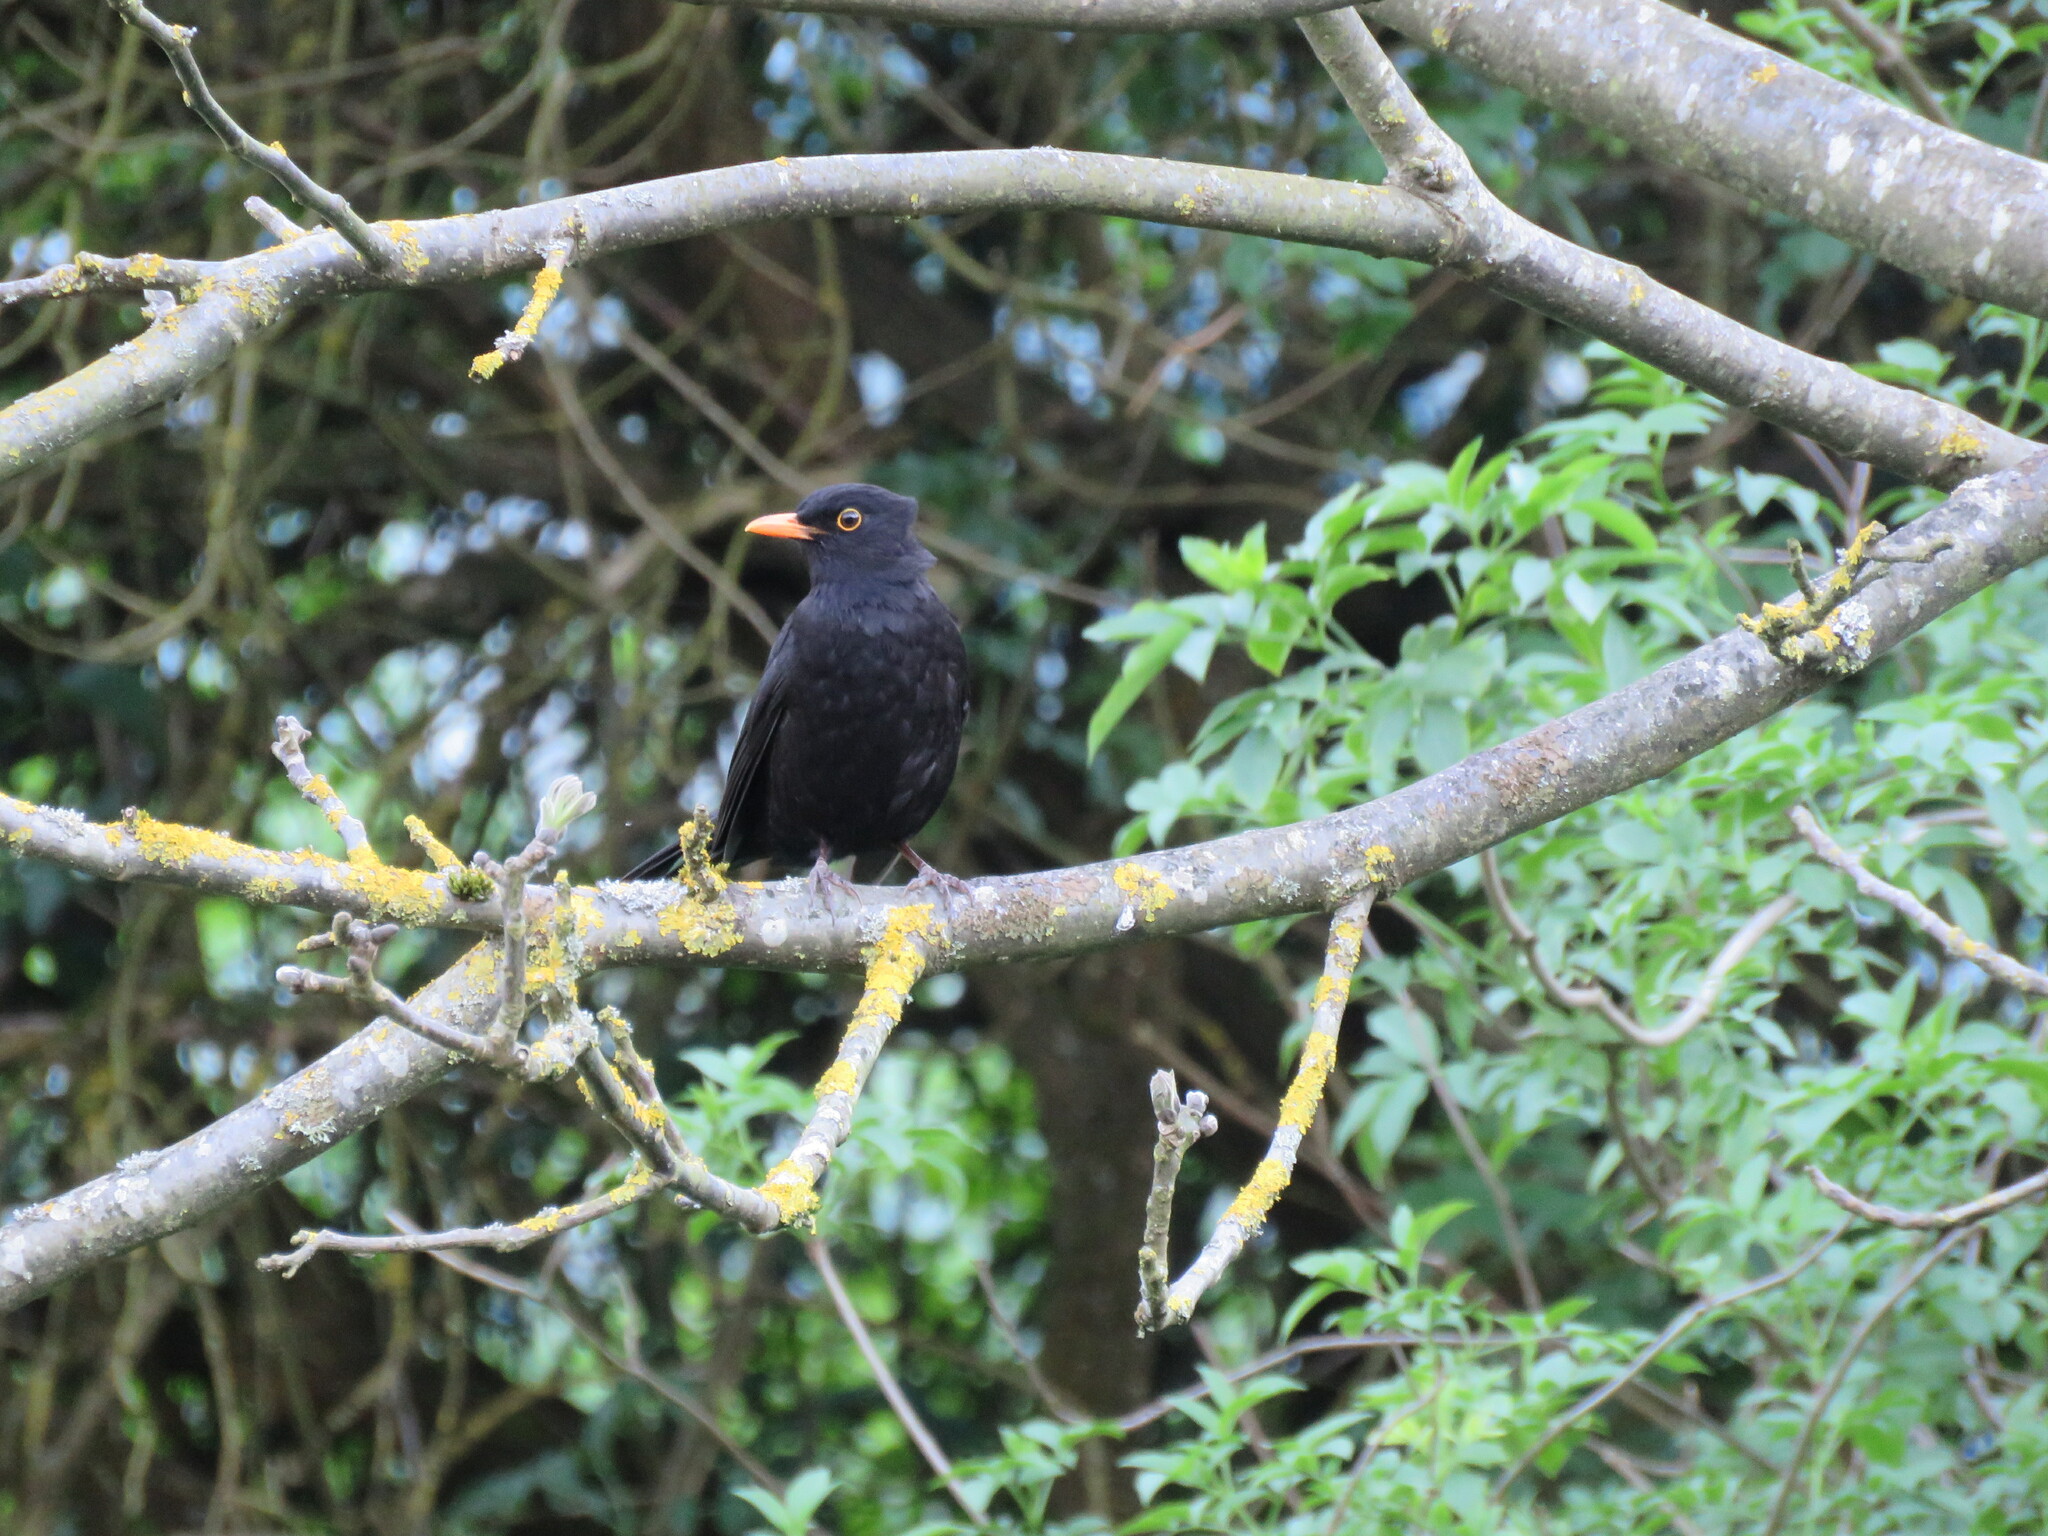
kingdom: Animalia
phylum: Chordata
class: Aves
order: Passeriformes
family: Turdidae
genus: Turdus
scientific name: Turdus merula
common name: Common blackbird
